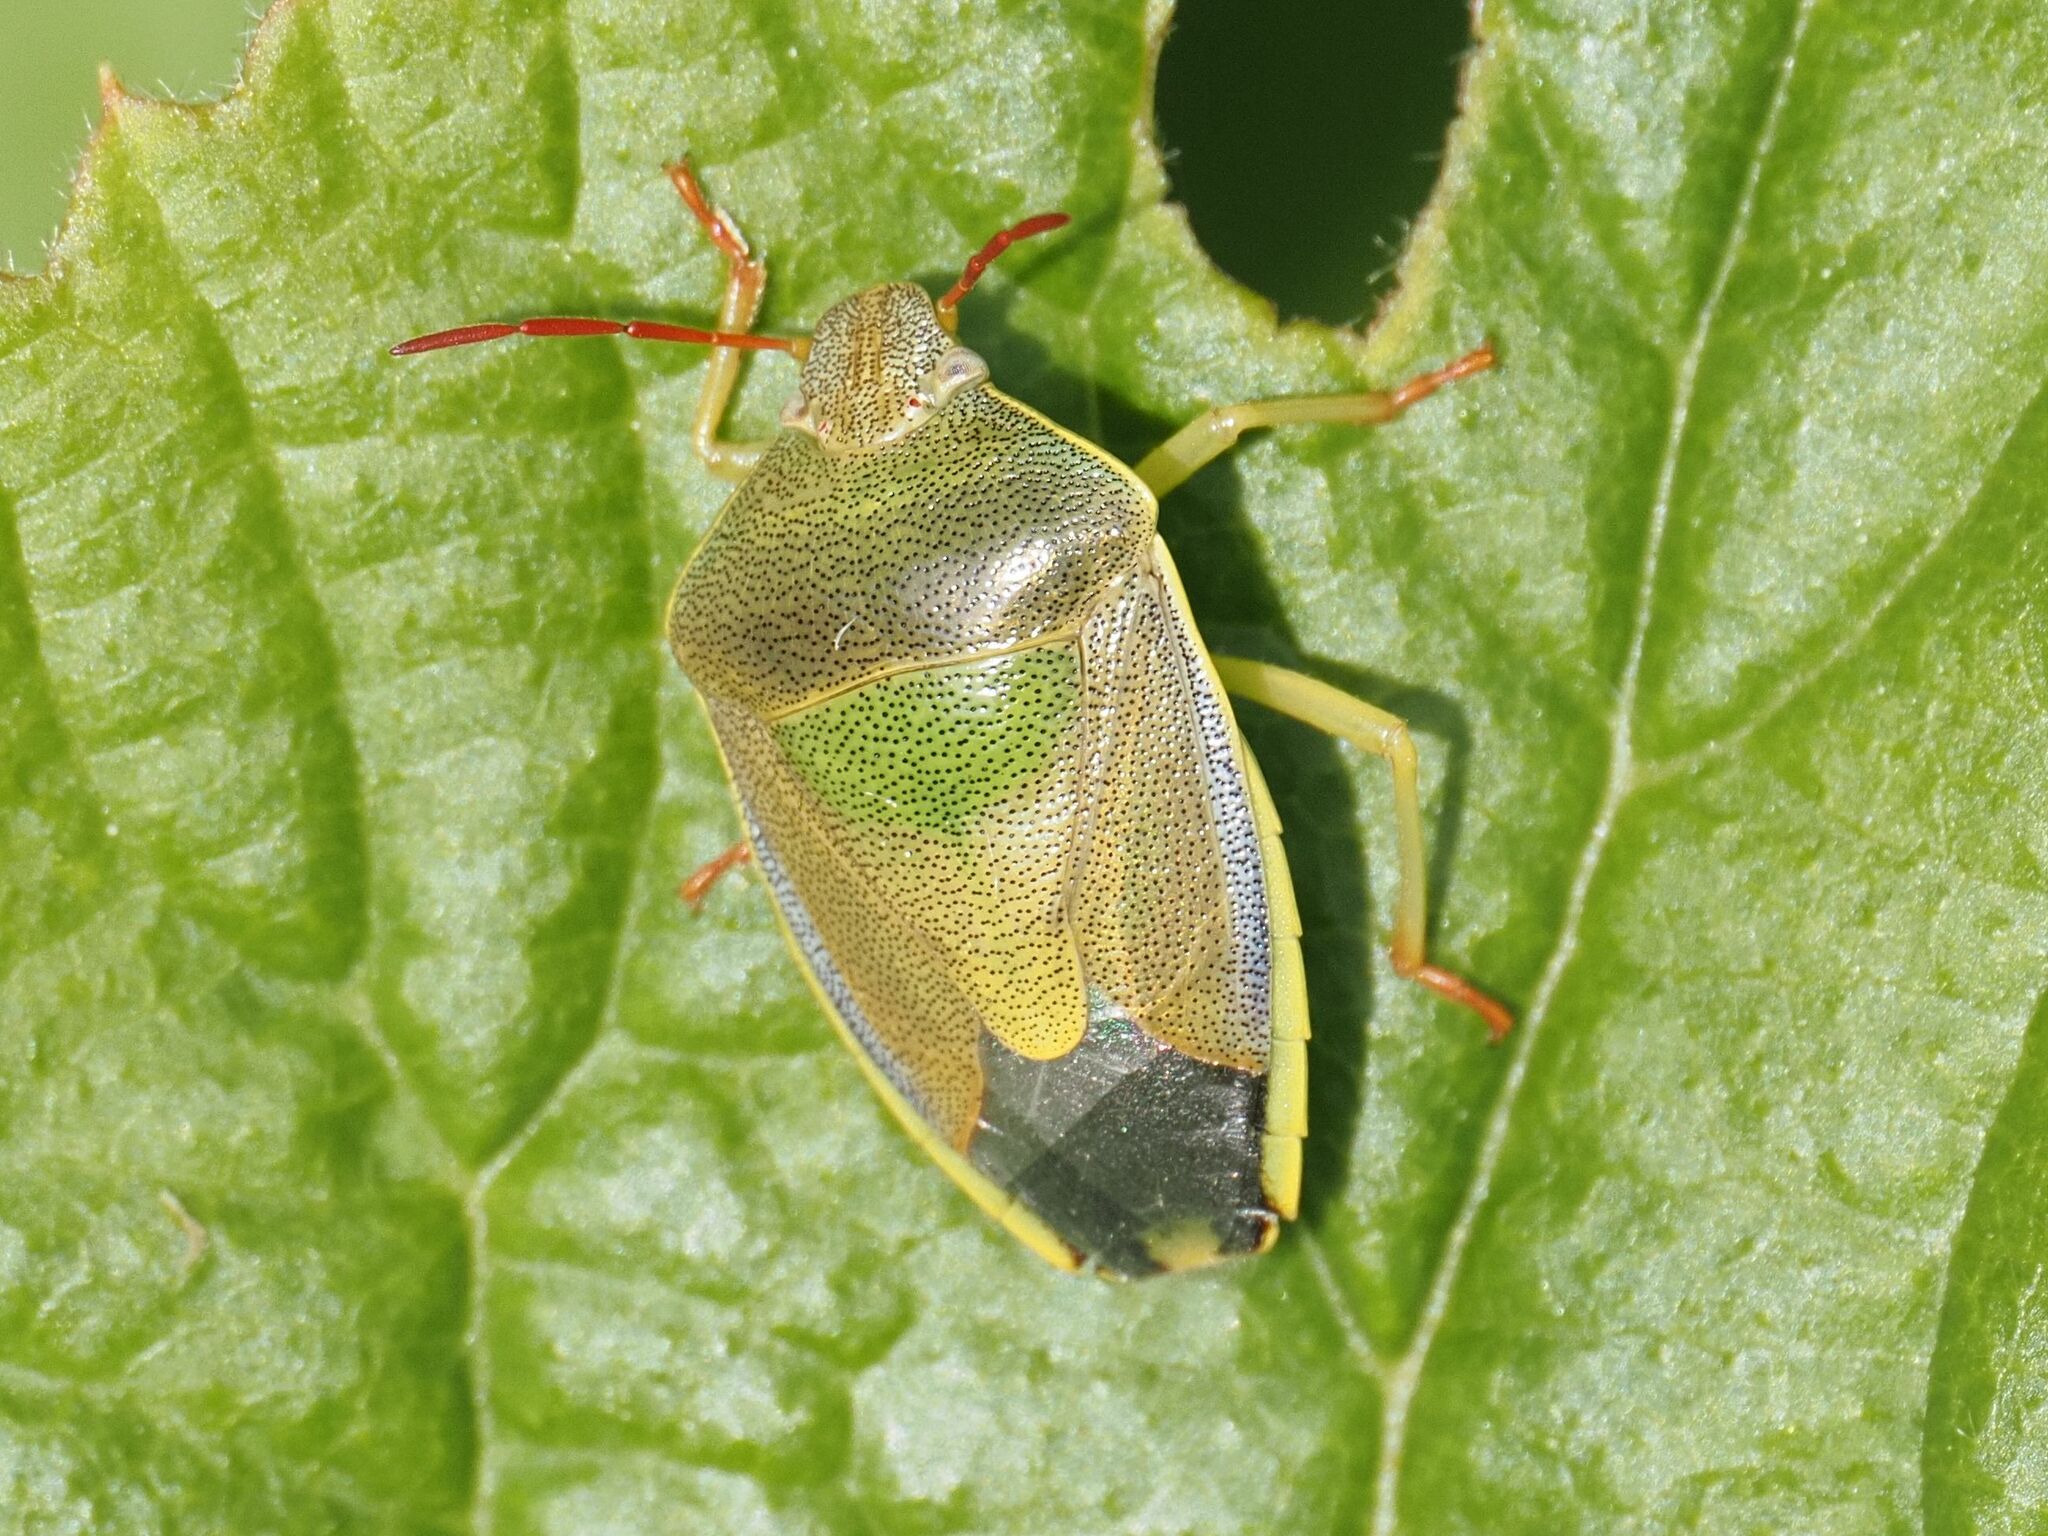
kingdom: Animalia
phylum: Arthropoda
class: Insecta
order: Hemiptera
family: Pentatomidae
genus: Piezodorus
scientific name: Piezodorus lituratus
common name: Stink bug
